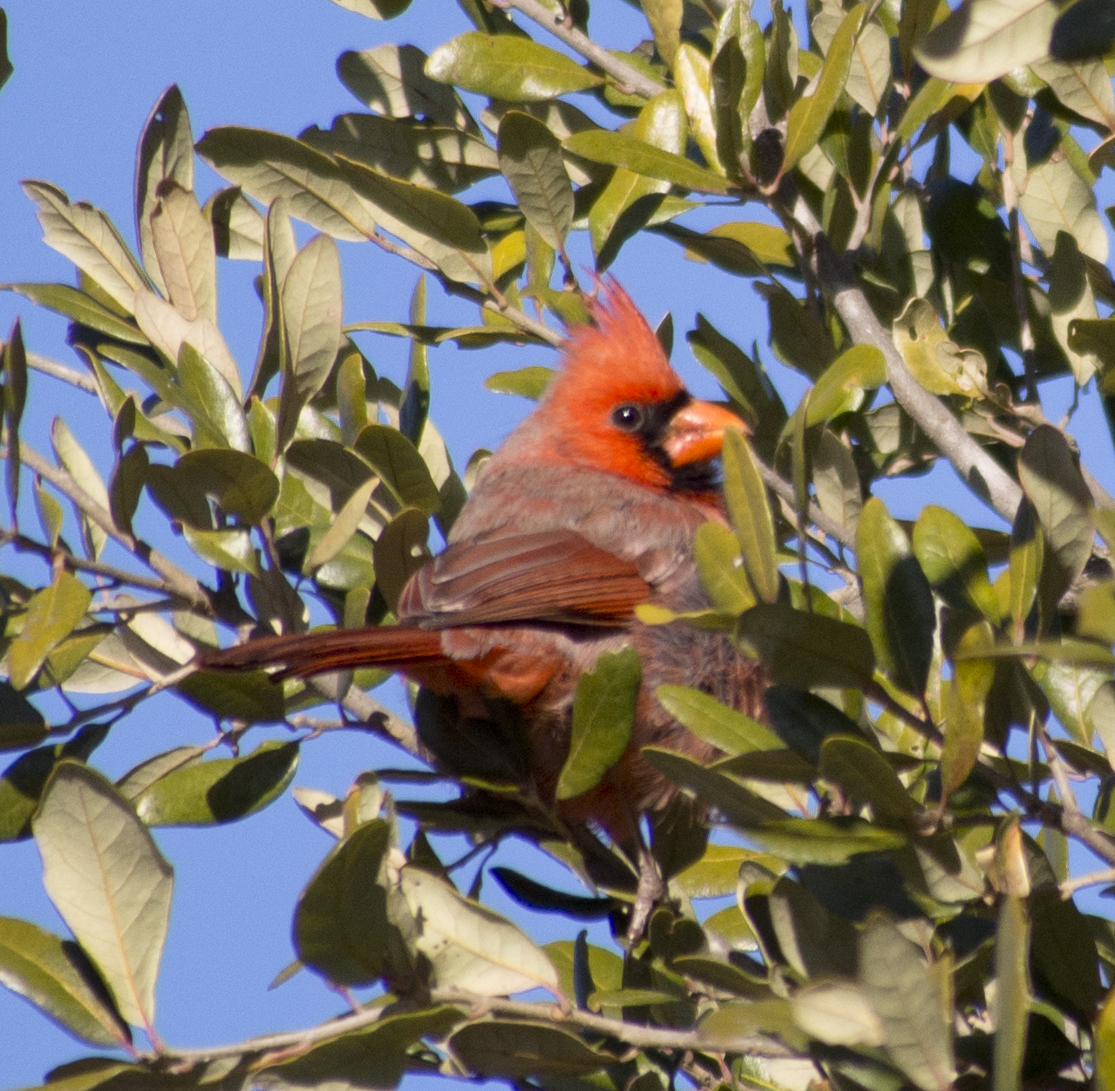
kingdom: Animalia
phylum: Chordata
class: Aves
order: Passeriformes
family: Cardinalidae
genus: Cardinalis
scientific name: Cardinalis cardinalis
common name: Northern cardinal
